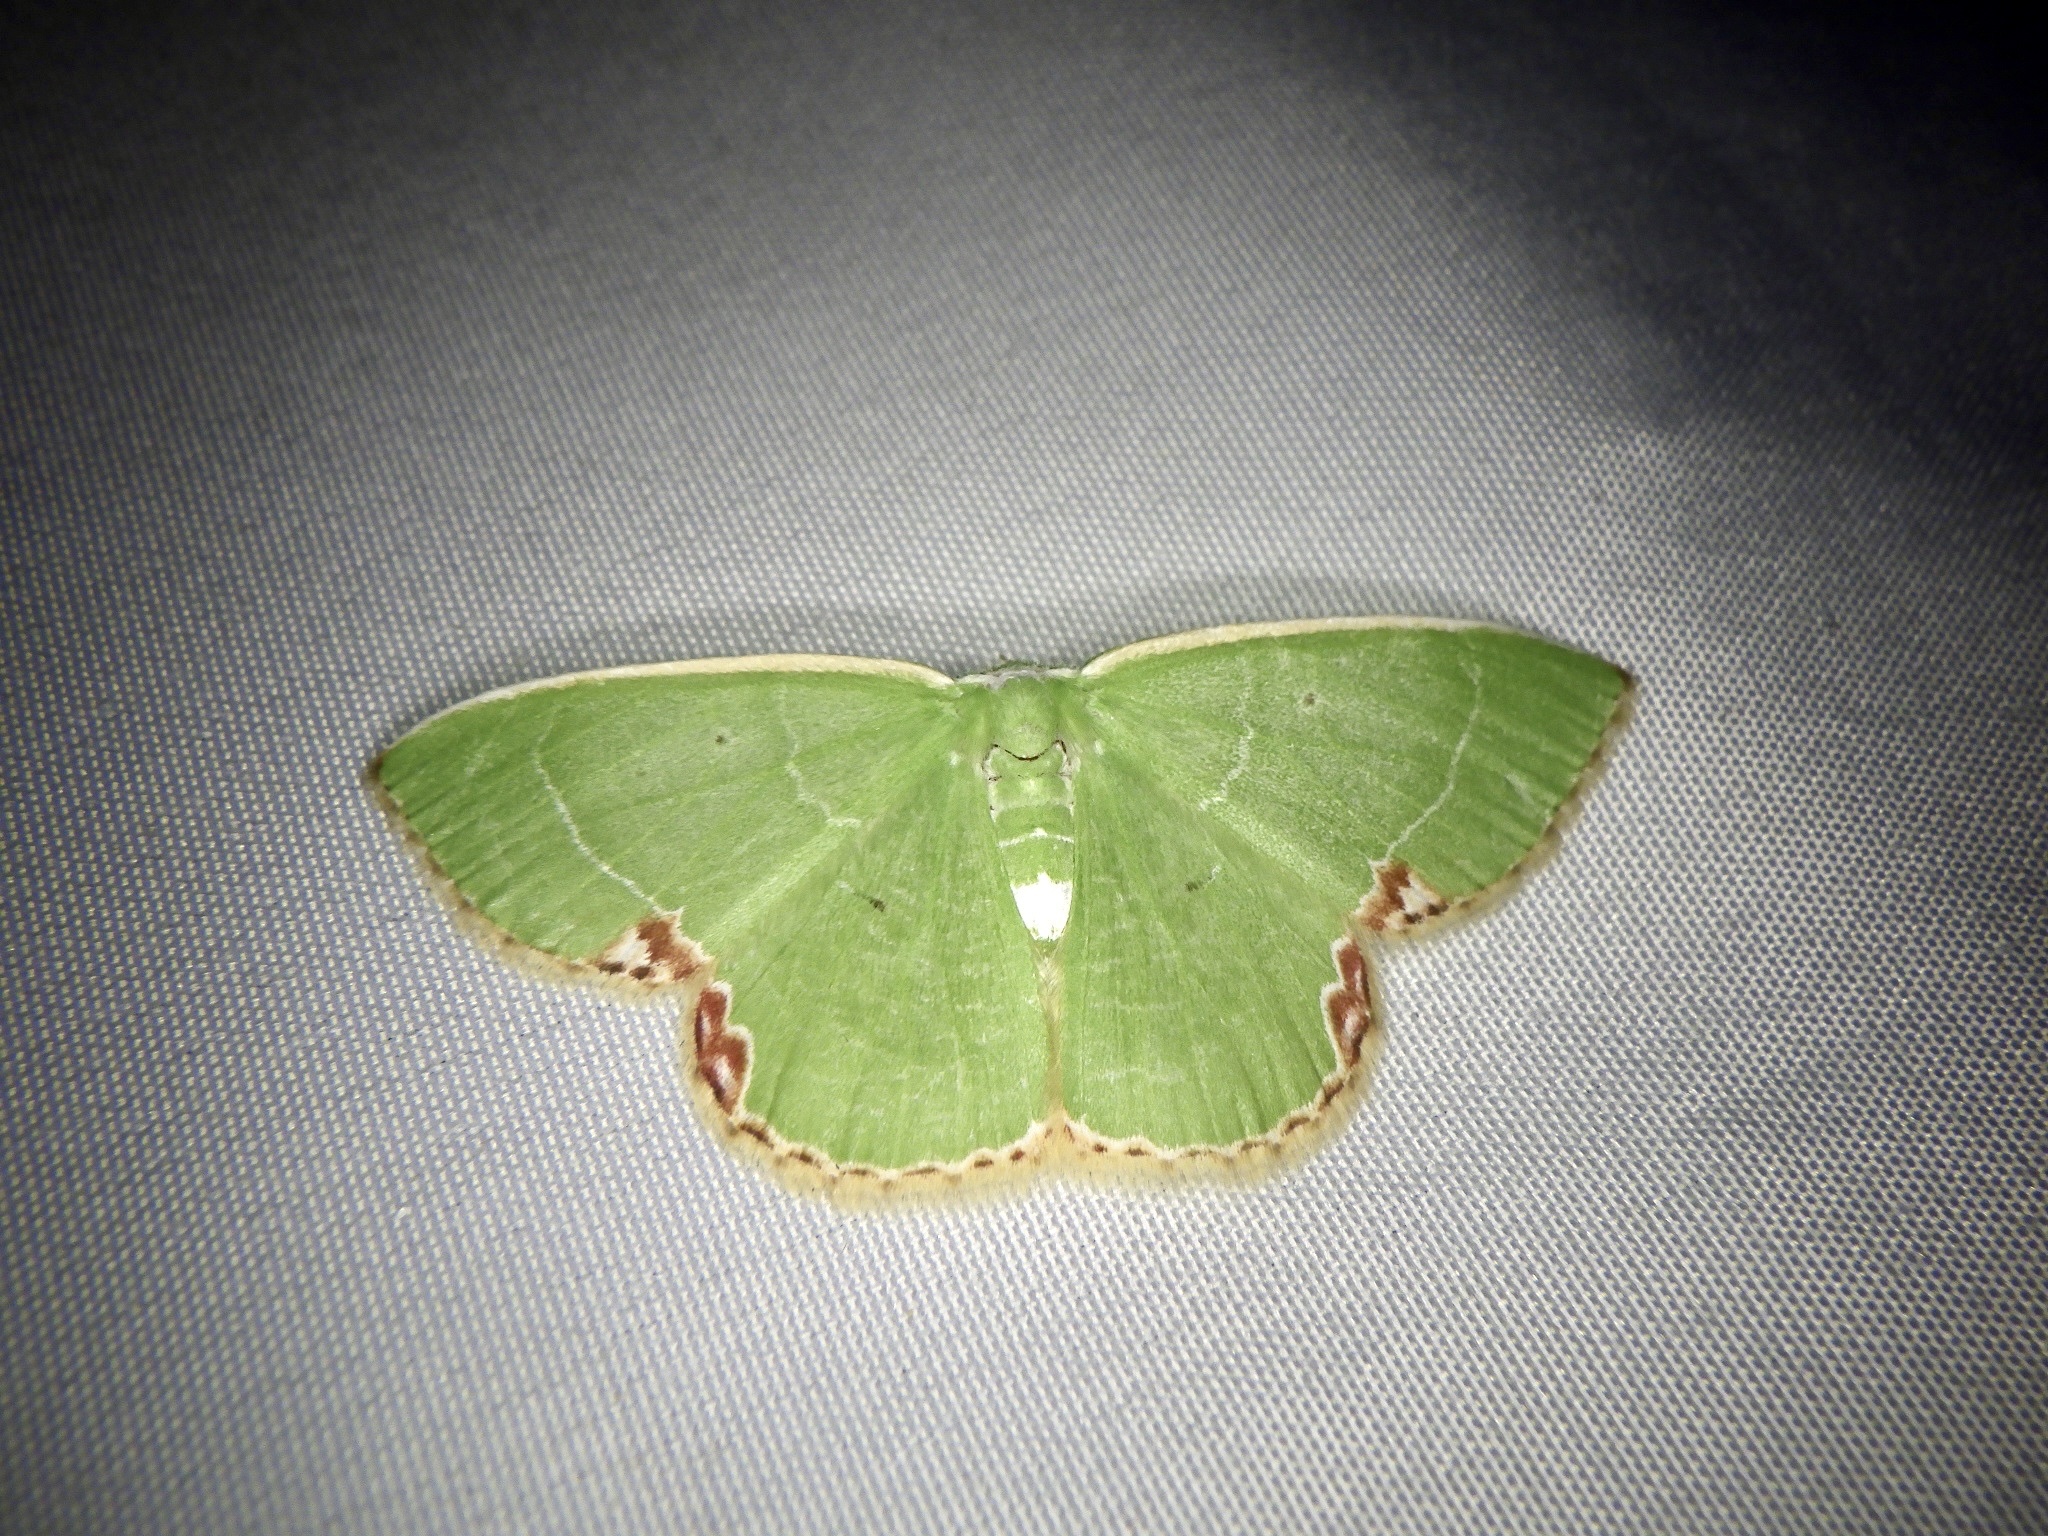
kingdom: Animalia
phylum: Arthropoda
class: Insecta
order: Lepidoptera
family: Geometridae
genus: Comibaena
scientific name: Comibaena amoenaria
